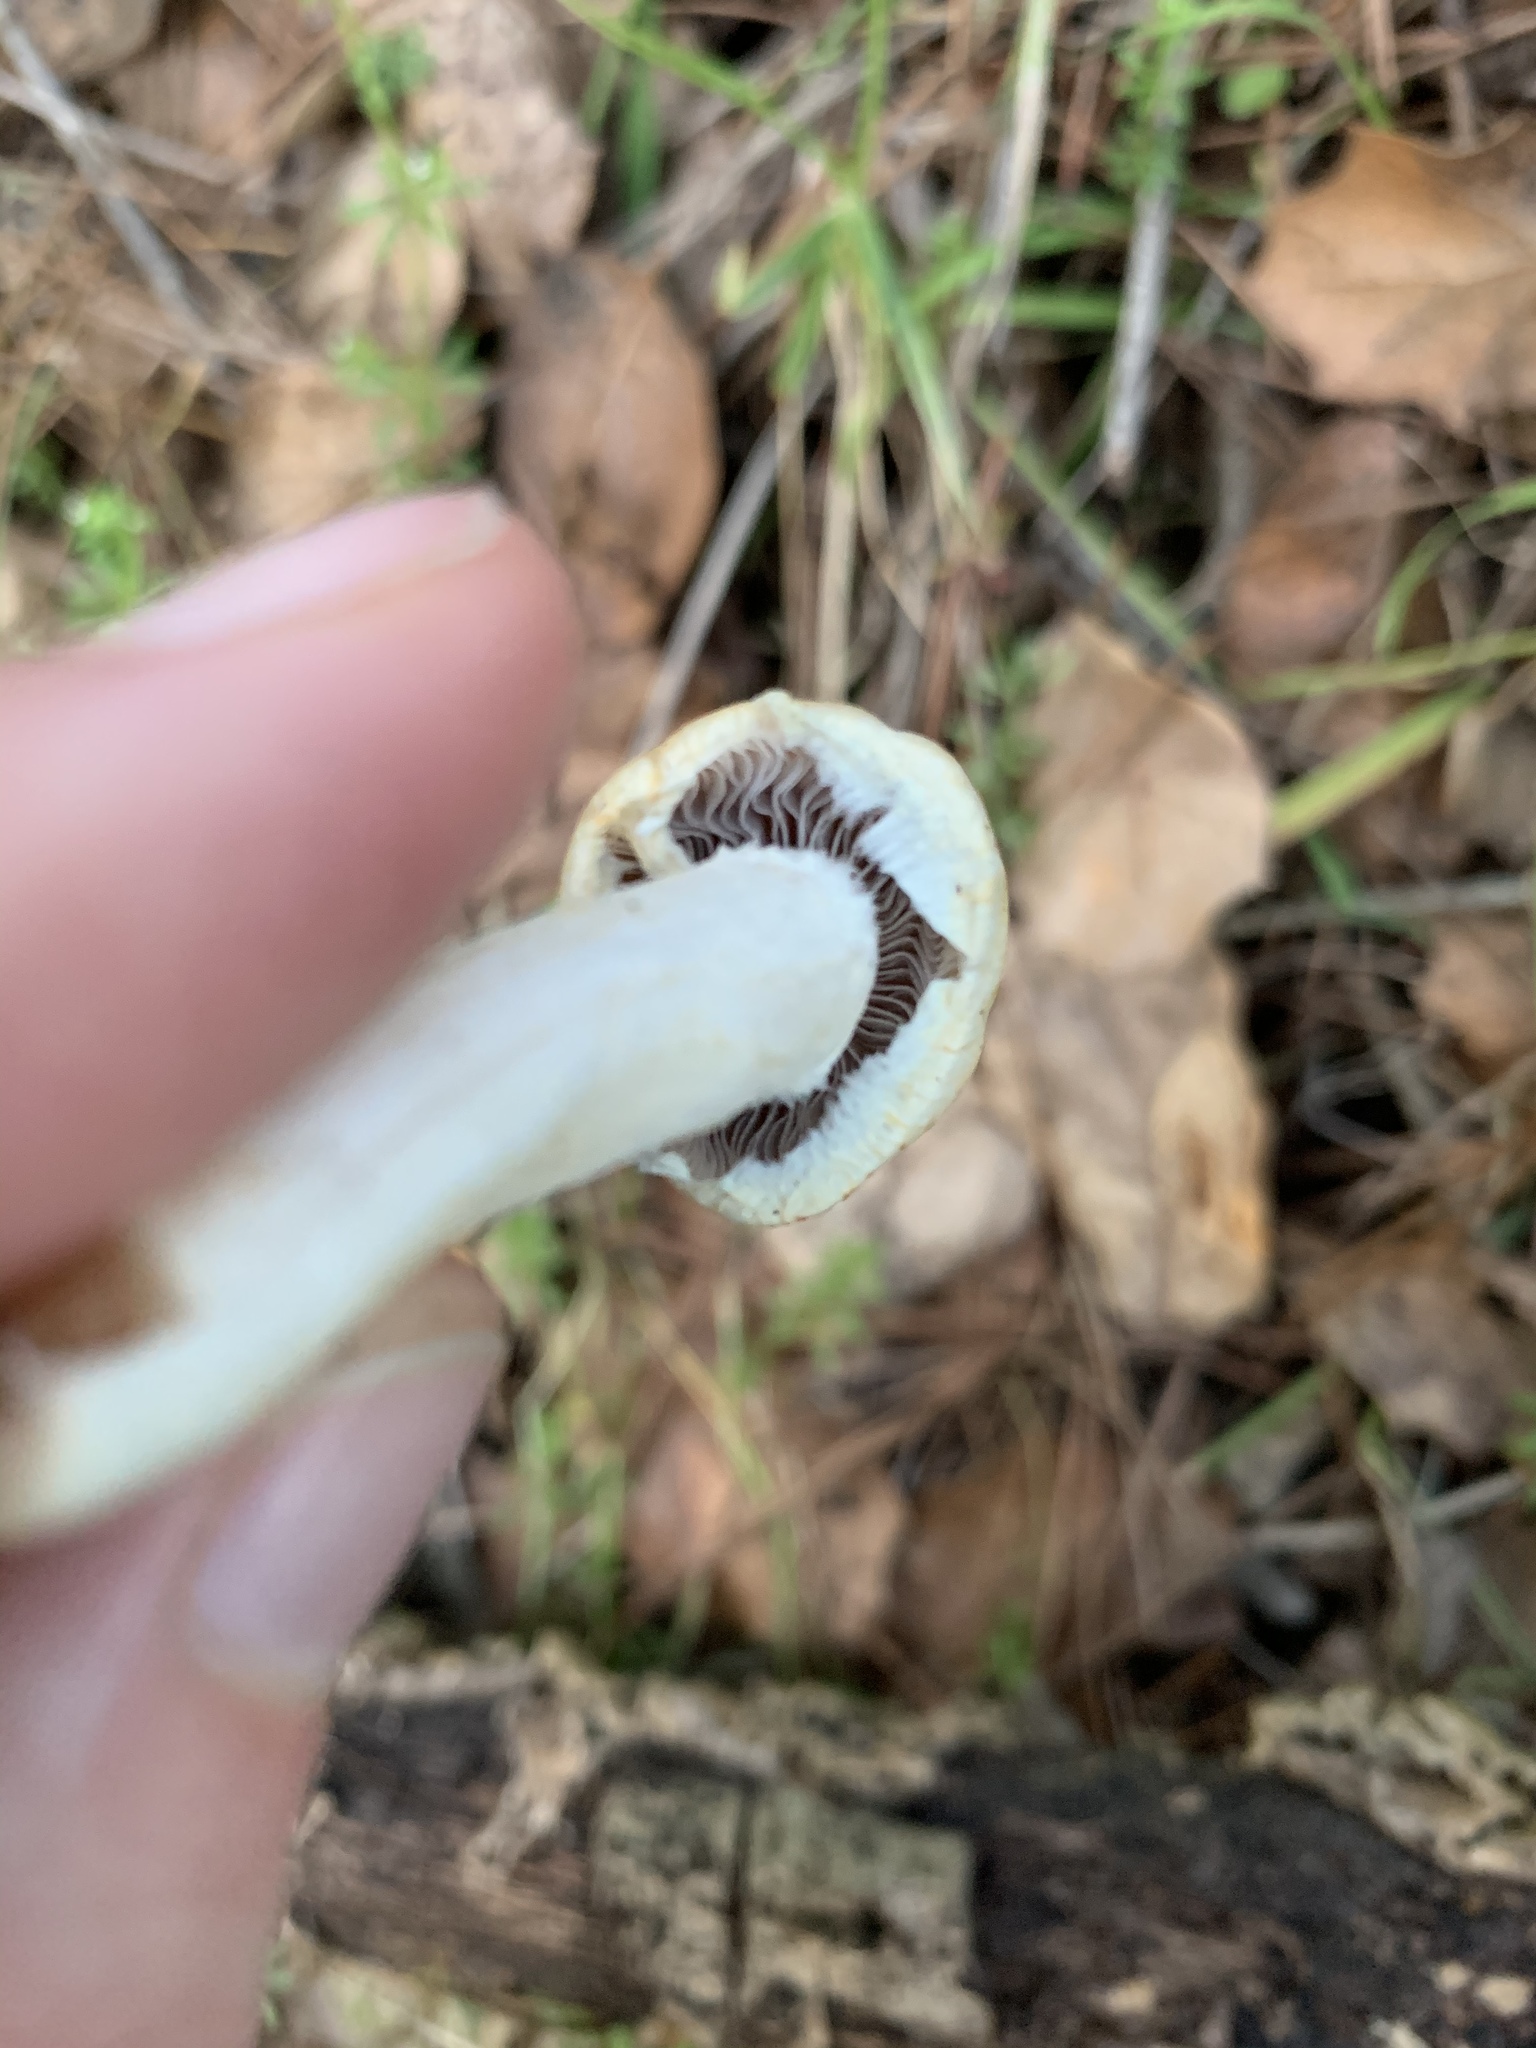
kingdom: Fungi
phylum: Basidiomycota
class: Agaricomycetes
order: Agaricales
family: Strophariaceae
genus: Leratiomyces
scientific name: Leratiomyces percevalii
